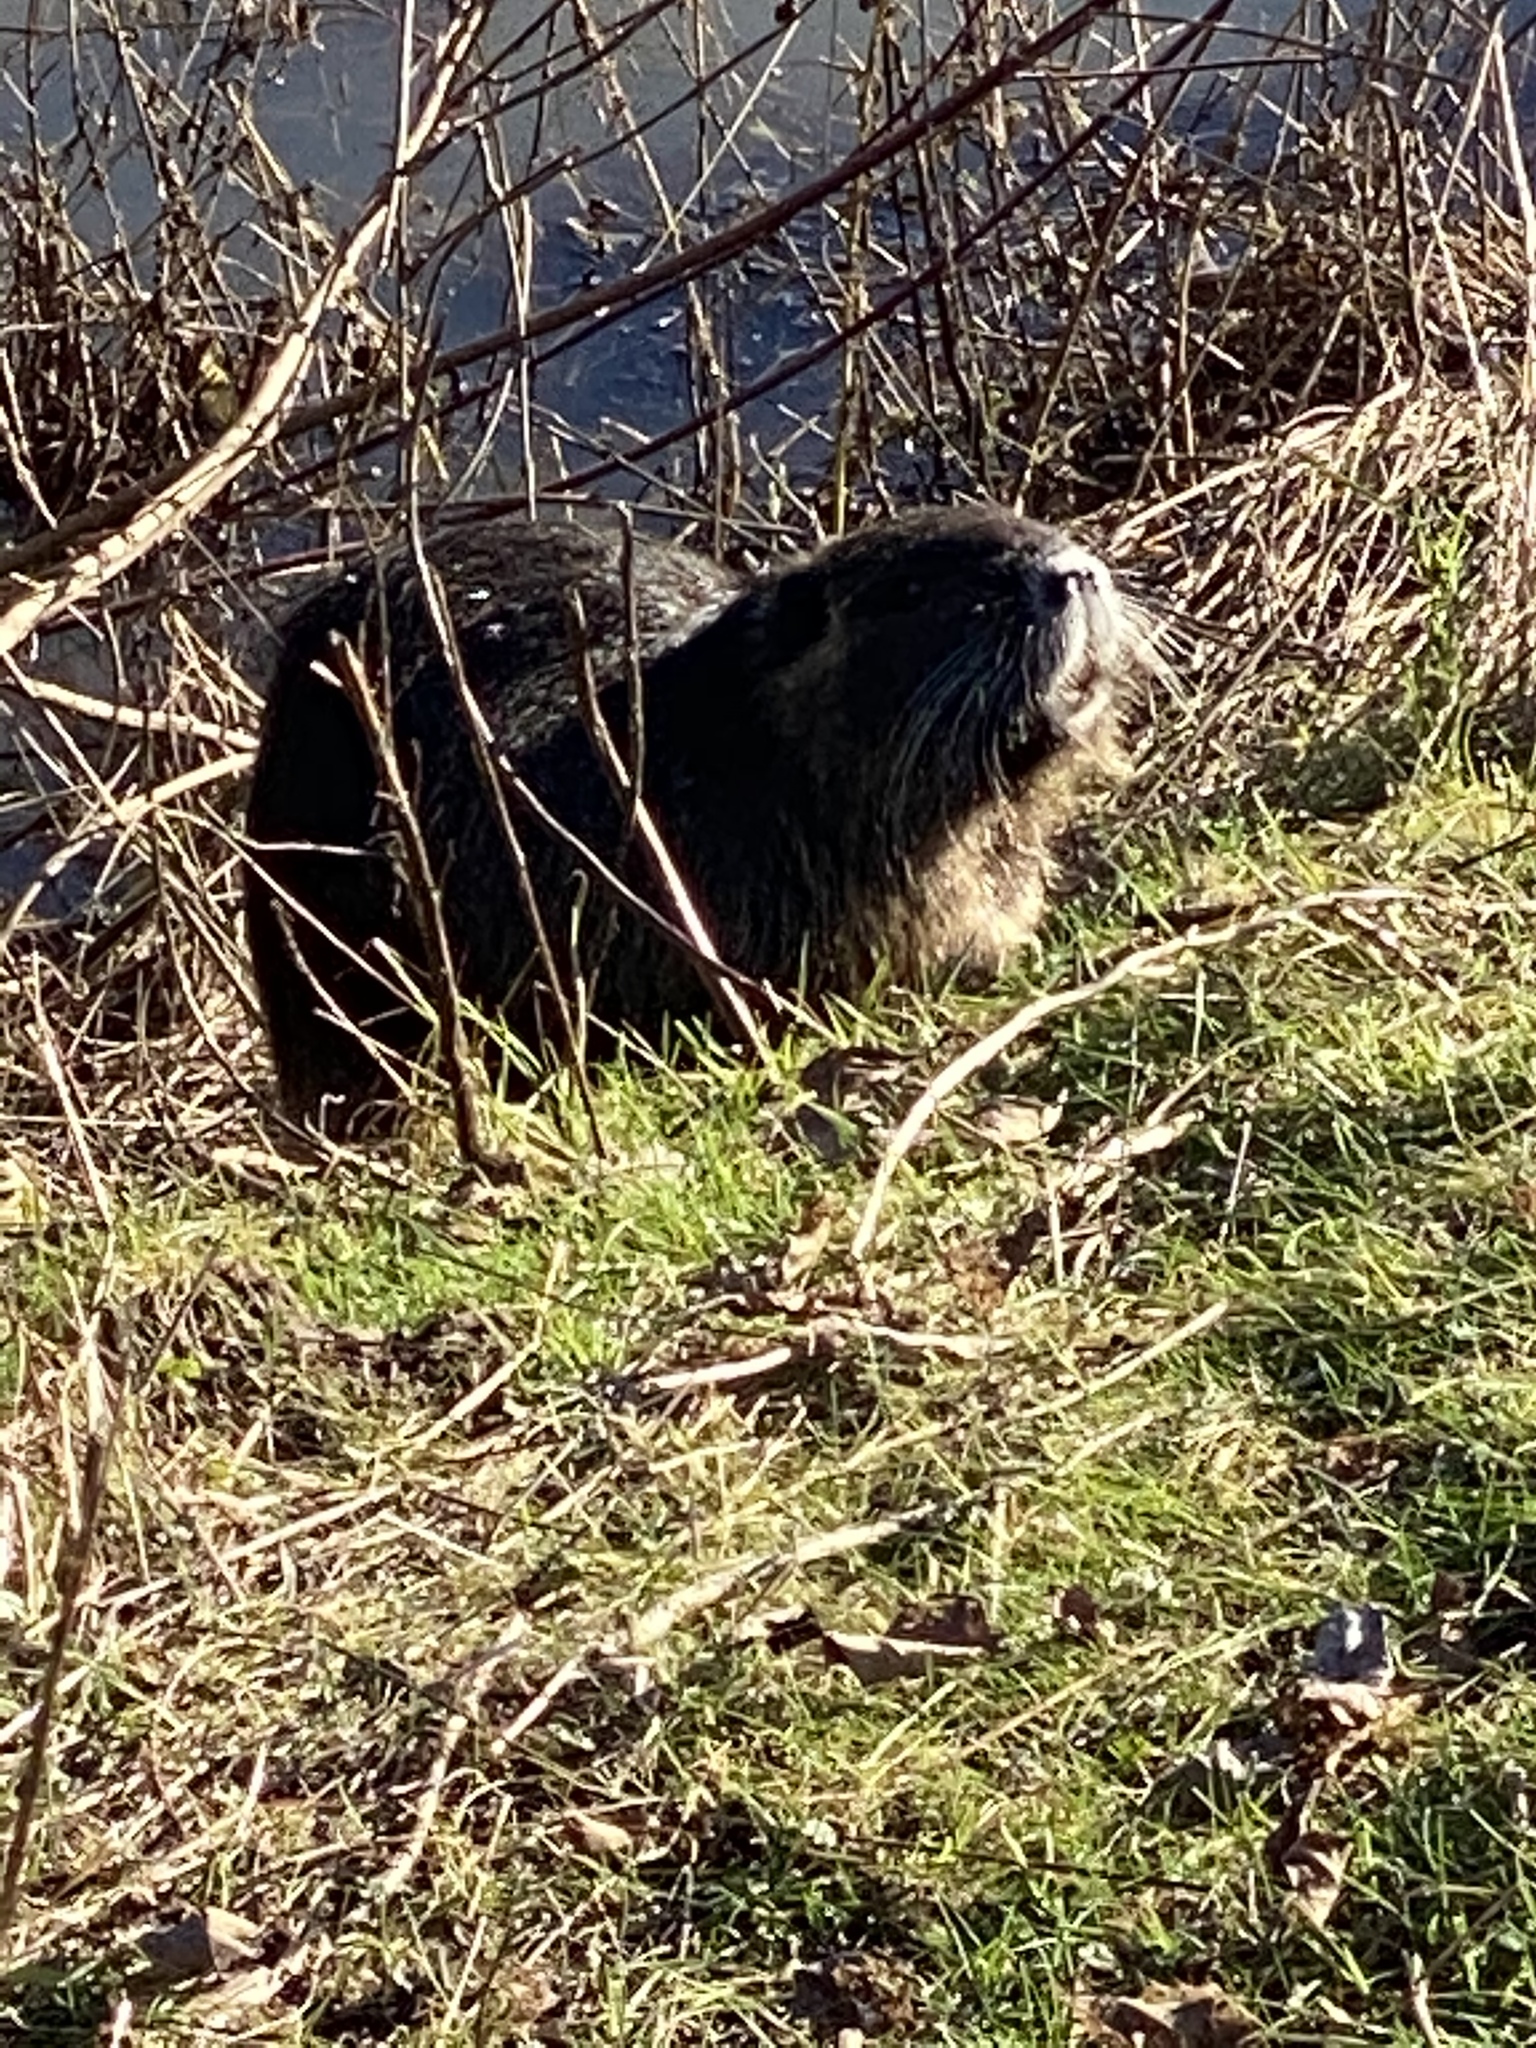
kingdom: Animalia
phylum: Chordata
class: Mammalia
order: Rodentia
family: Myocastoridae
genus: Myocastor
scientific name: Myocastor coypus
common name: Coypu
